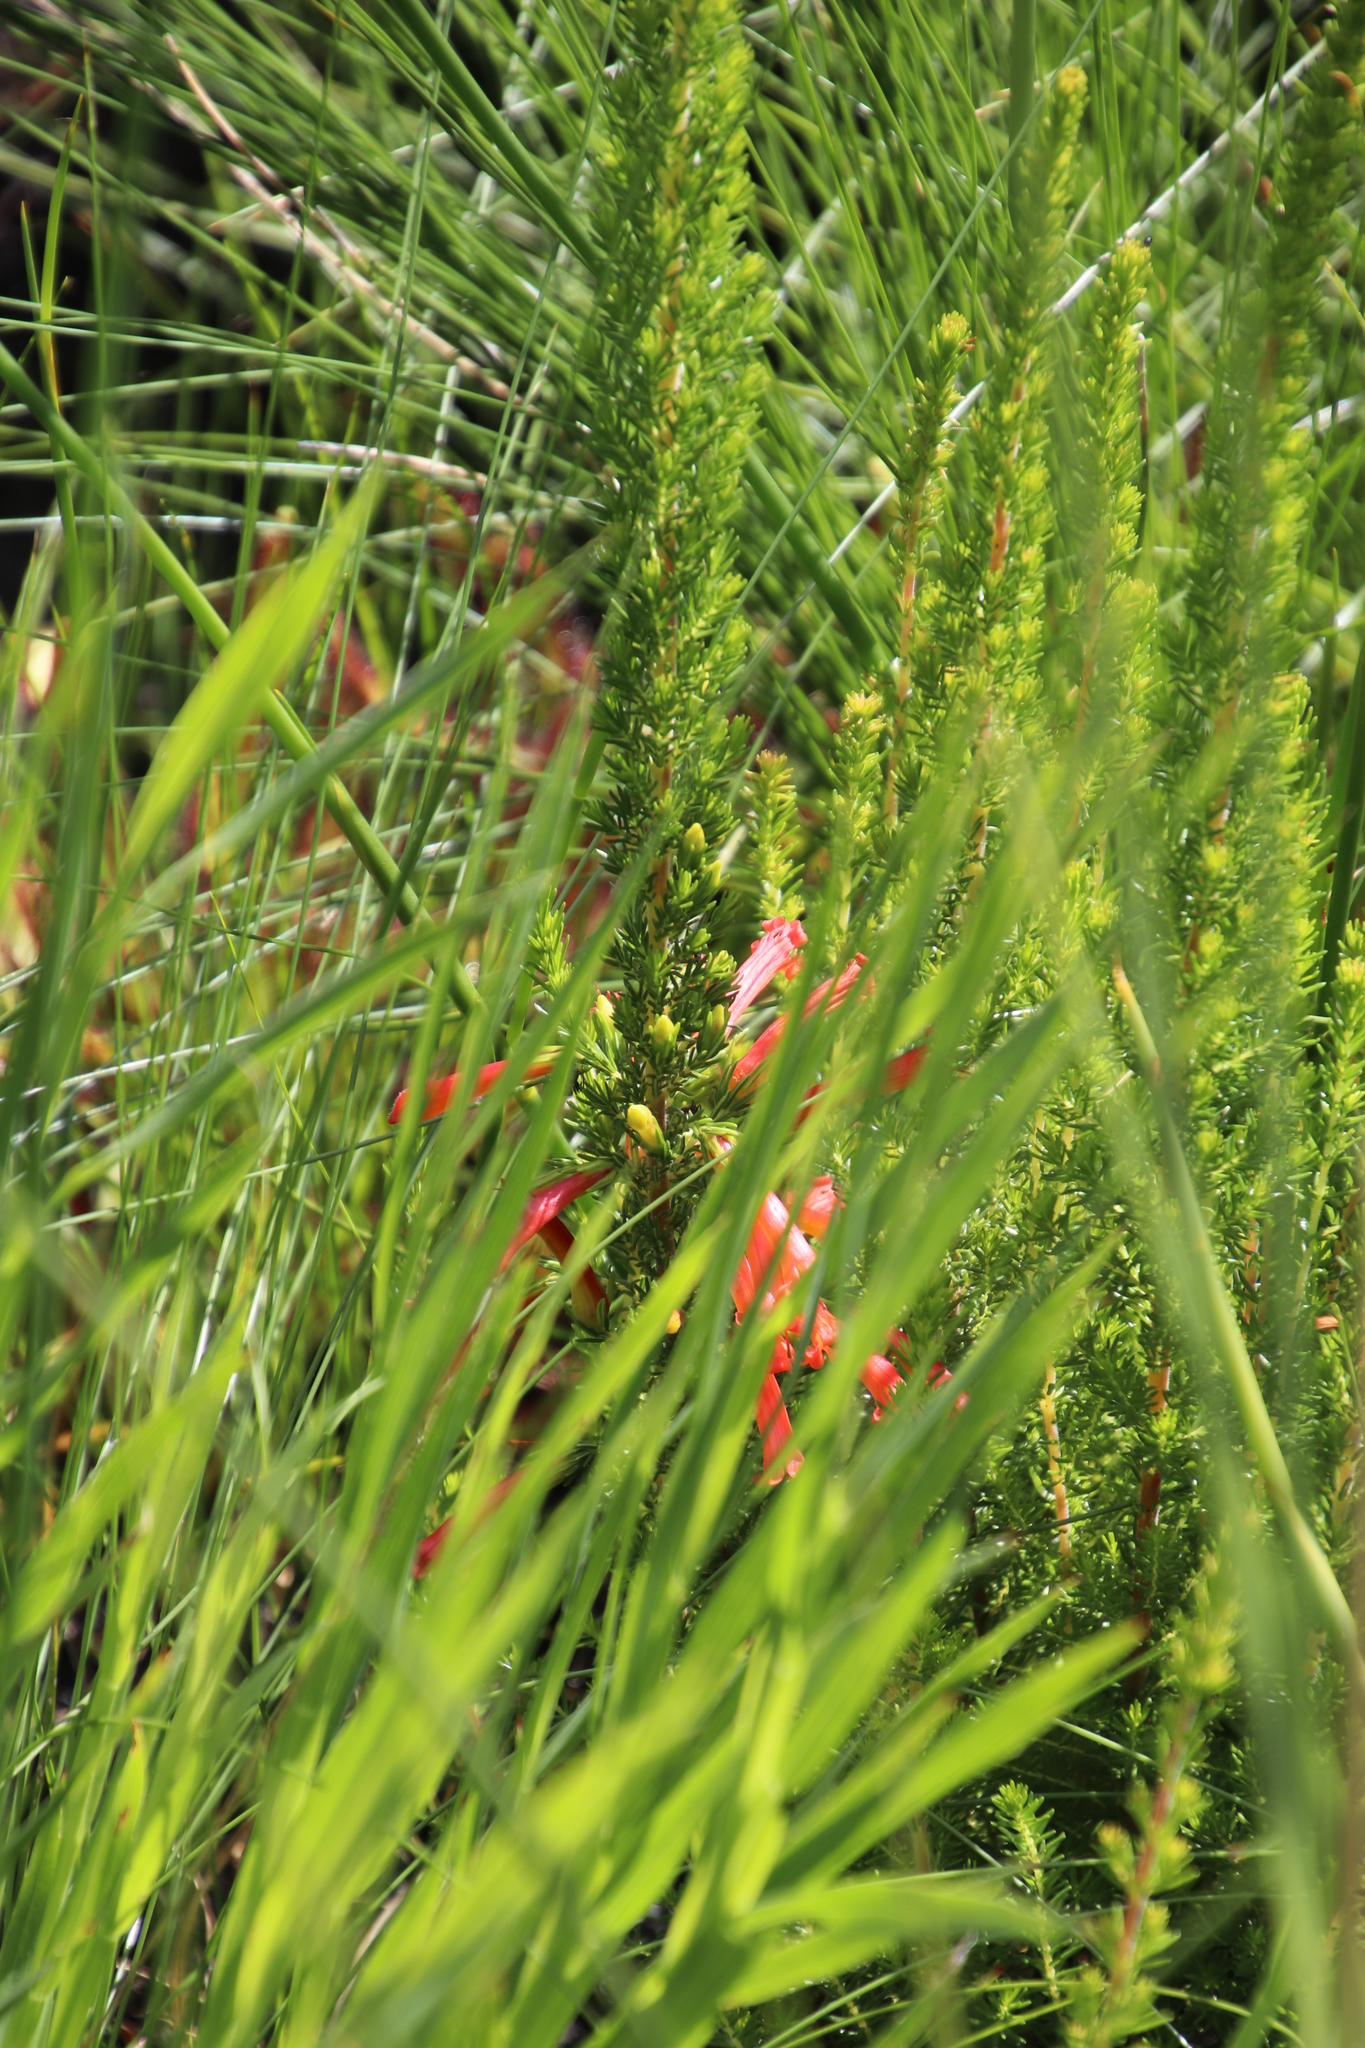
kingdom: Plantae
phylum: Tracheophyta
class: Magnoliopsida
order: Ericales
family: Ericaceae
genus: Erica
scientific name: Erica curviflora
